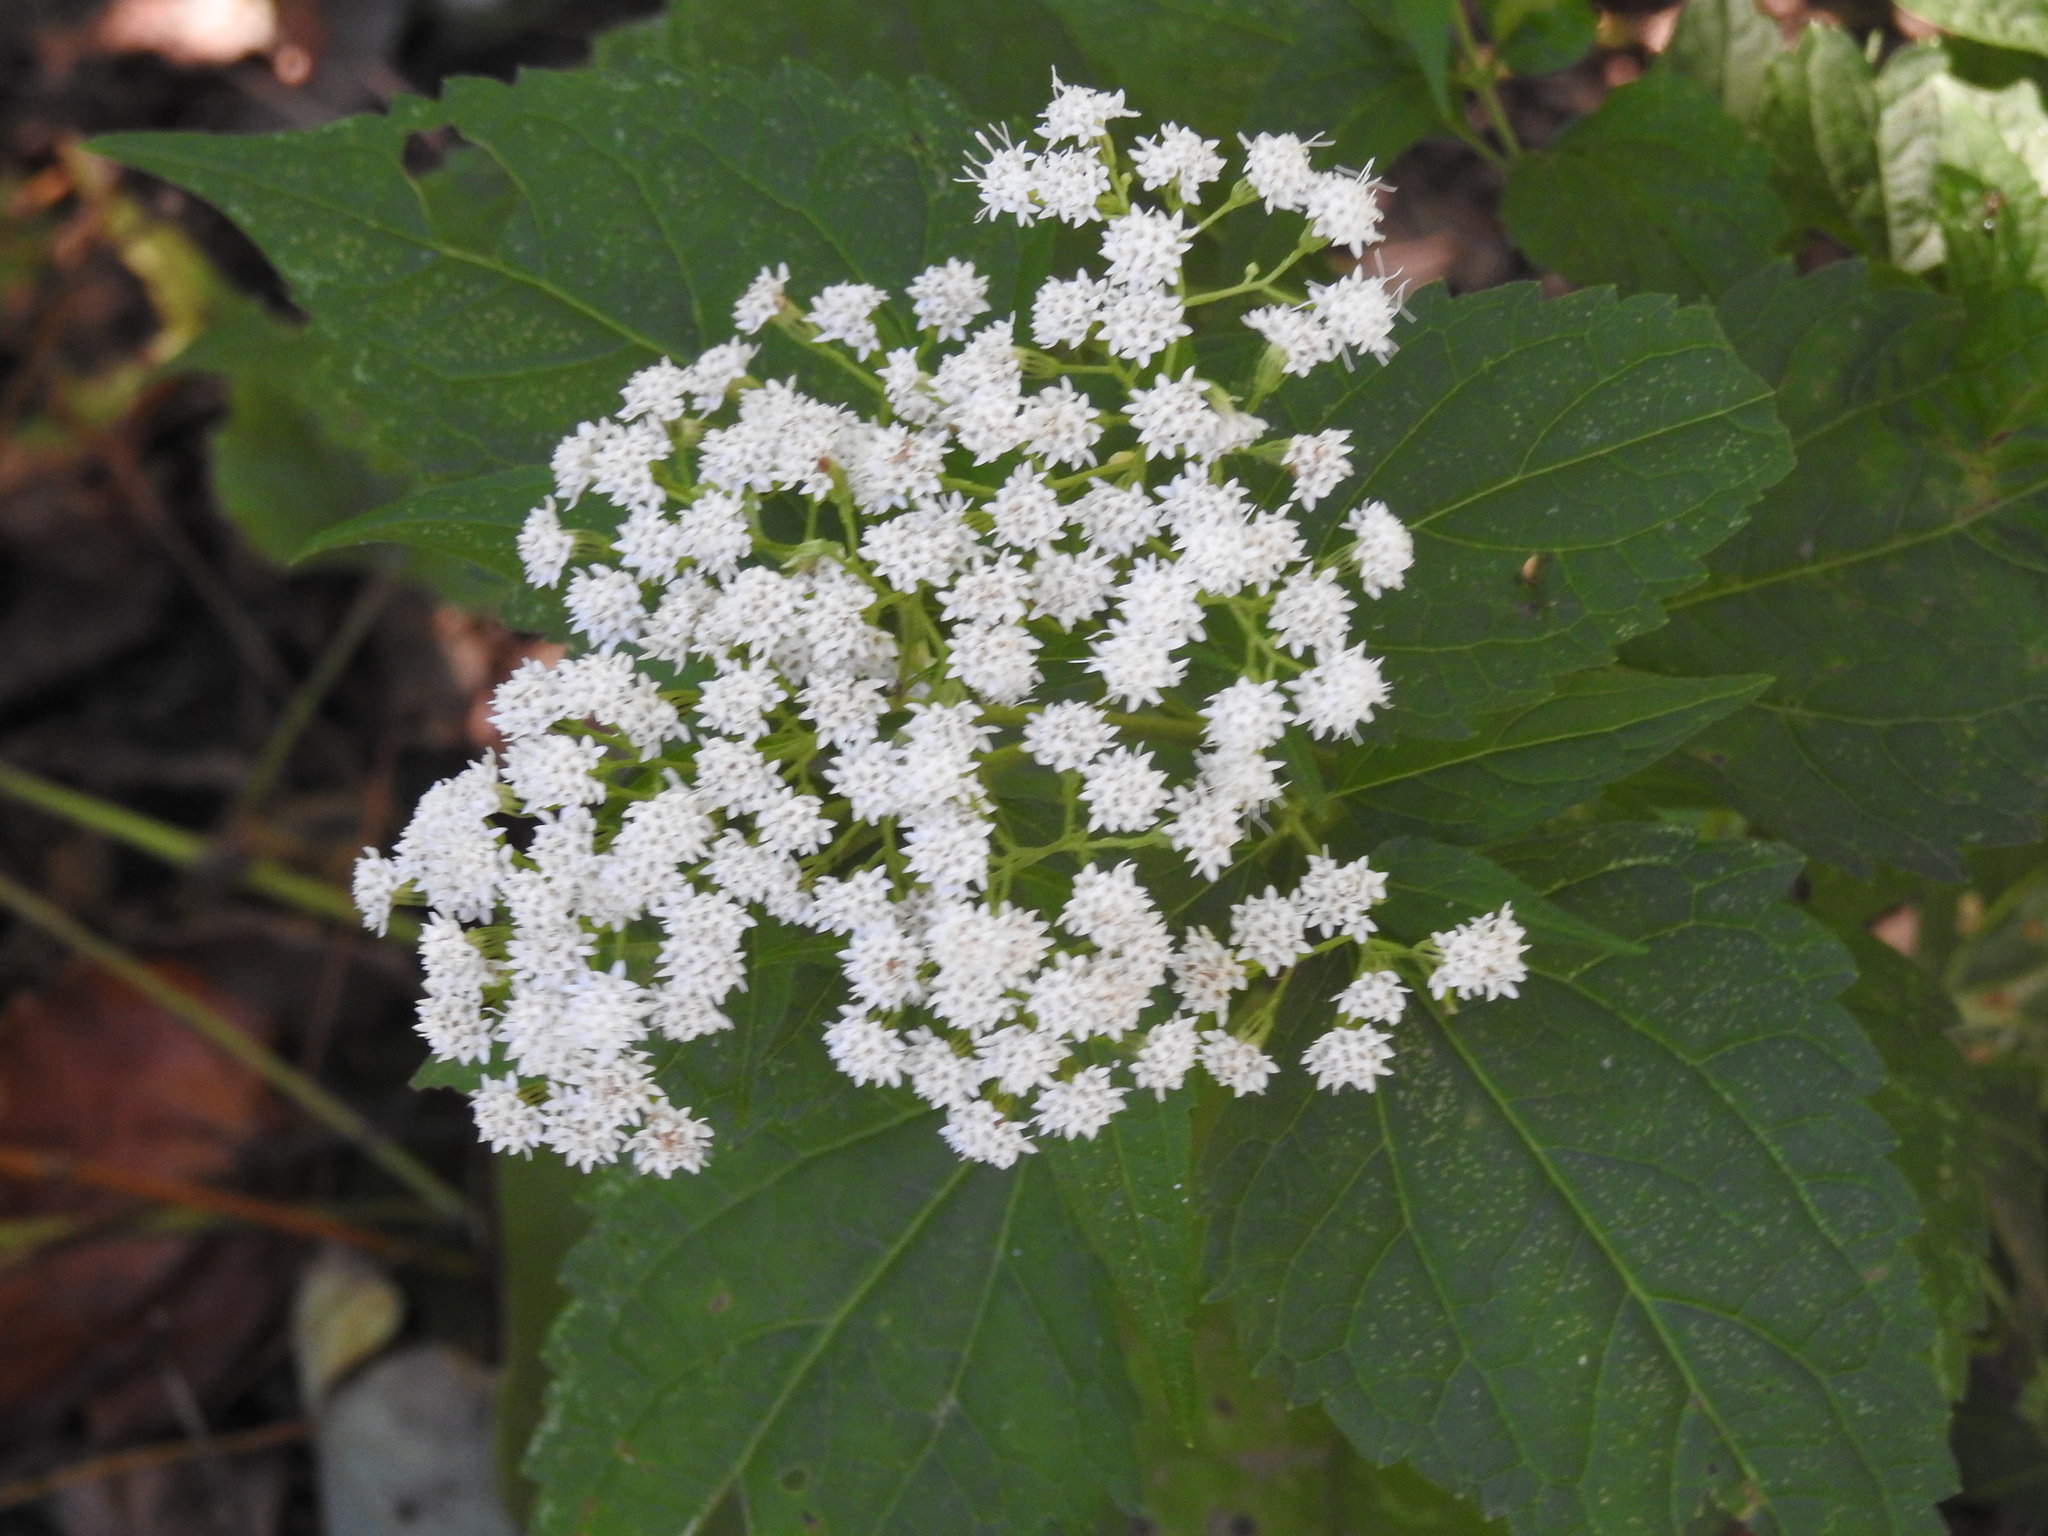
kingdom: Plantae
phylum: Tracheophyta
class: Magnoliopsida
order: Asterales
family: Asteraceae
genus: Ageratina
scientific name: Ageratina altissima
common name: White snakeroot
